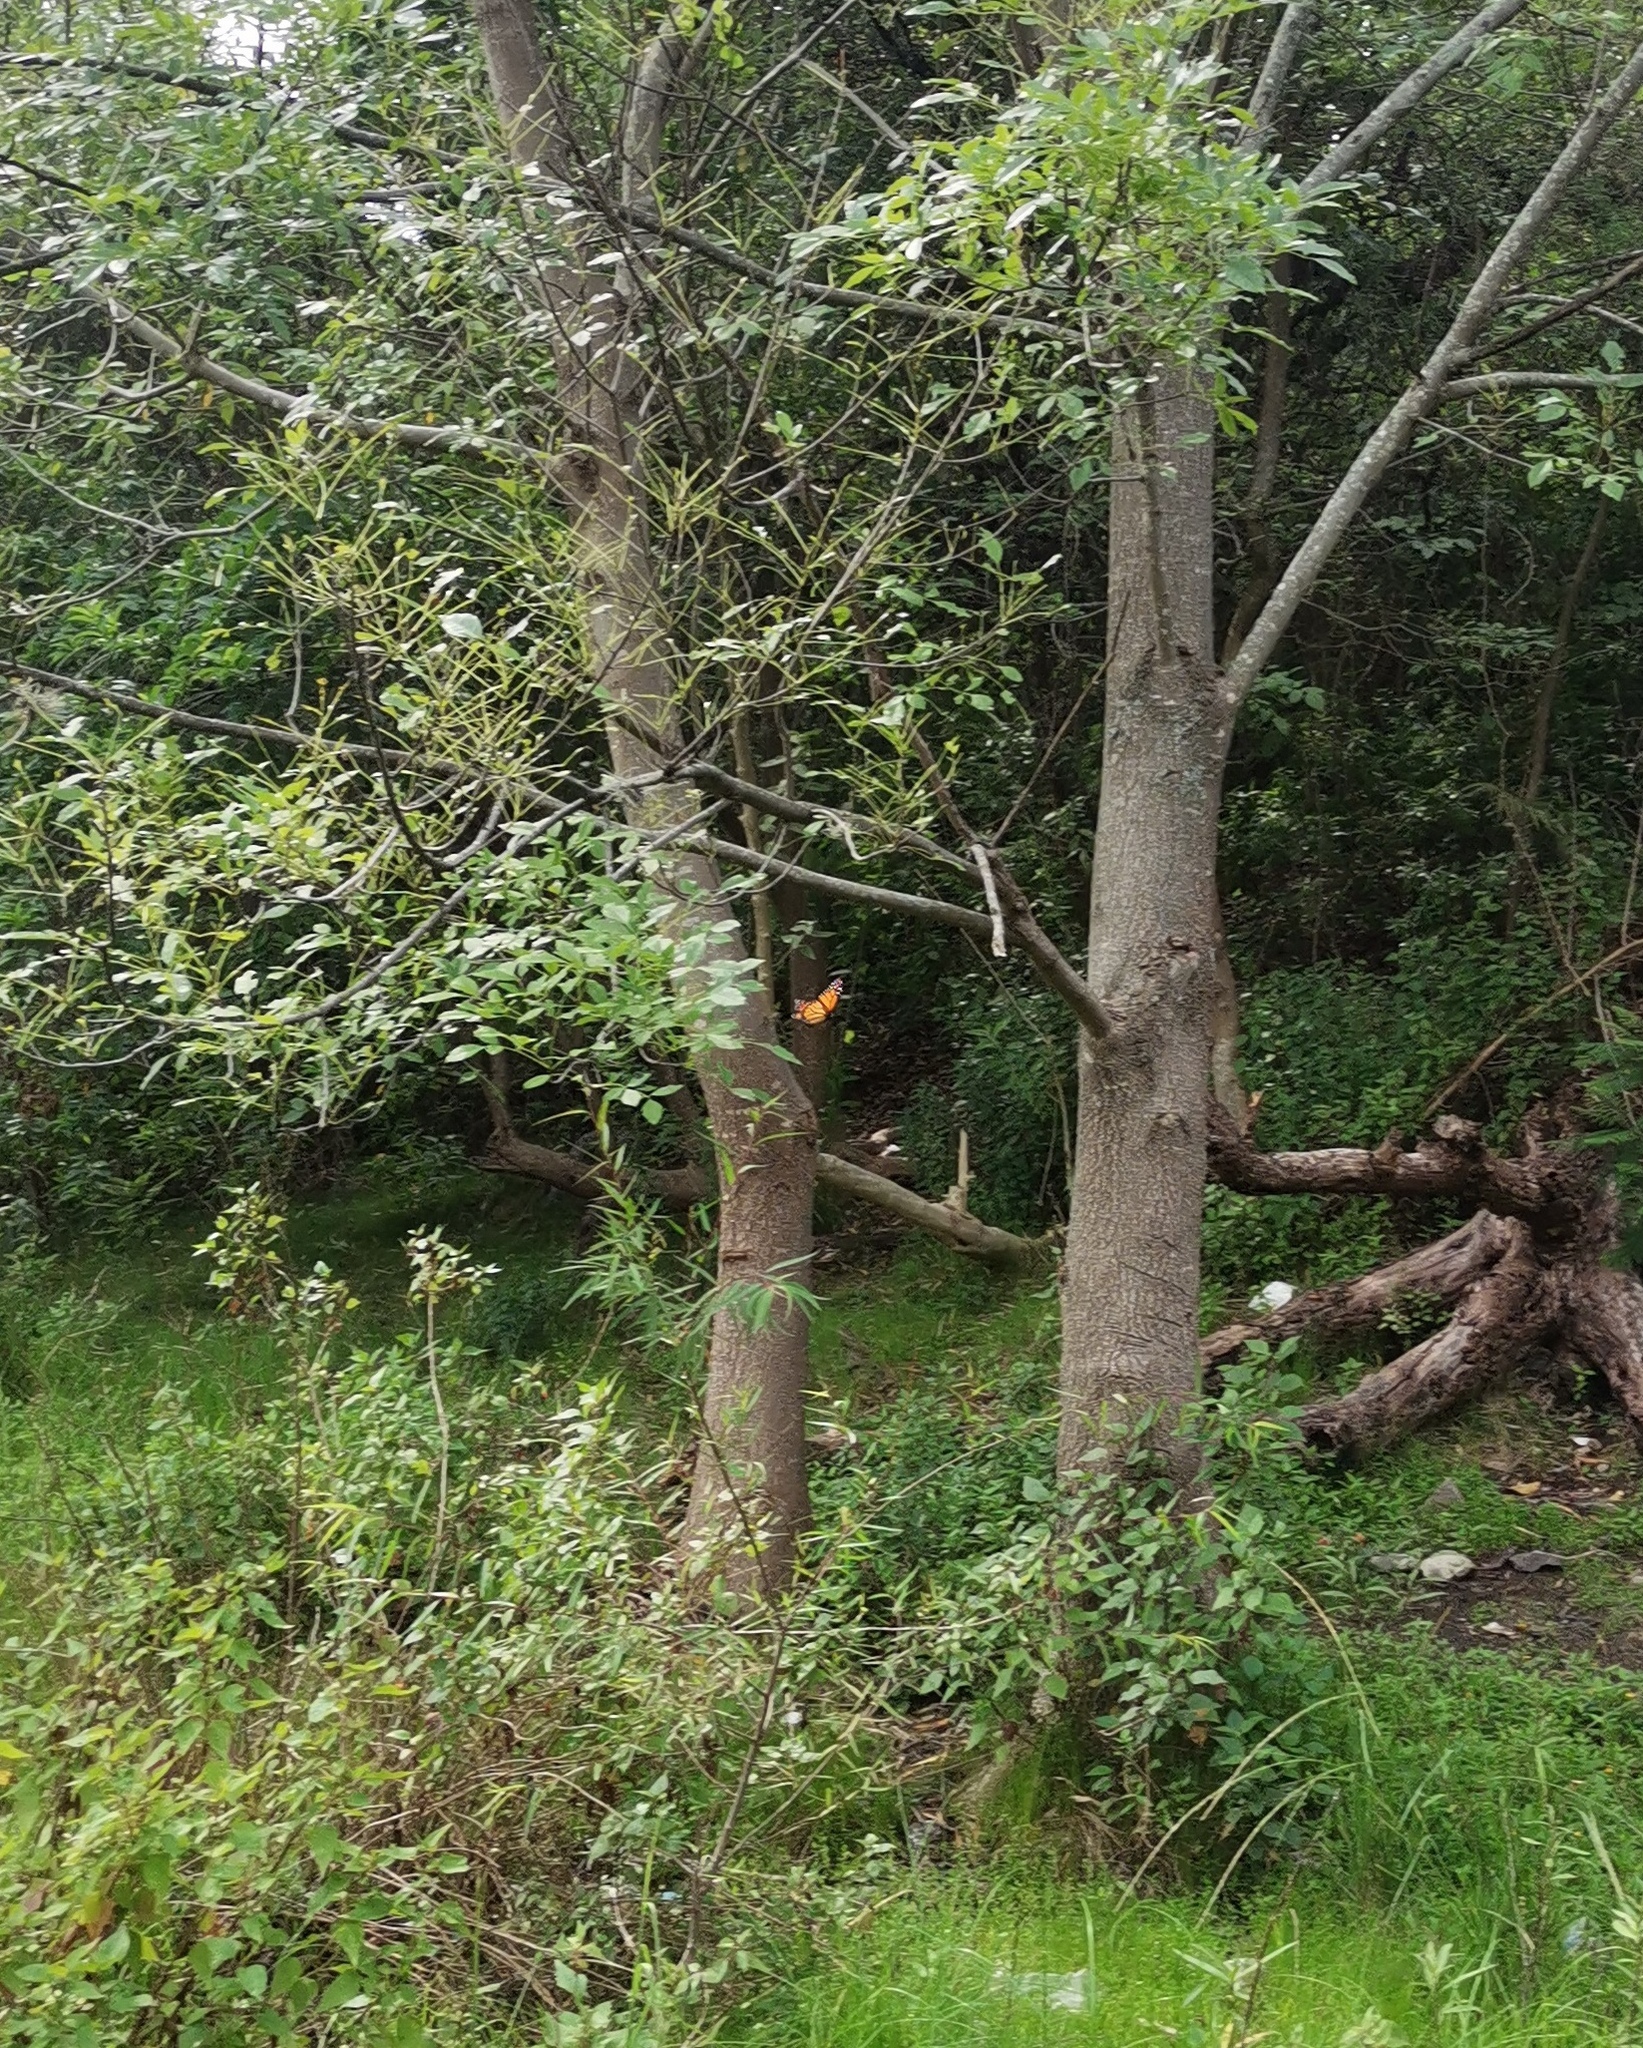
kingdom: Animalia
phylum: Arthropoda
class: Insecta
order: Lepidoptera
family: Nymphalidae
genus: Danaus
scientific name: Danaus plexippus
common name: Monarch
